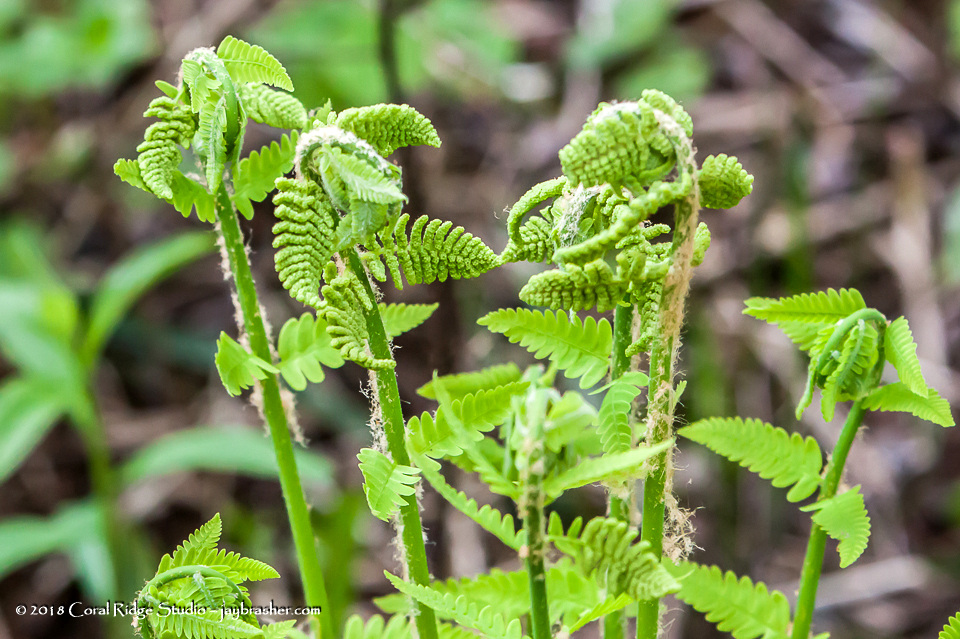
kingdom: Plantae
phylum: Tracheophyta
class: Polypodiopsida
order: Osmundales
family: Osmundaceae
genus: Claytosmunda
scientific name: Claytosmunda claytoniana
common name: Clayton's fern
